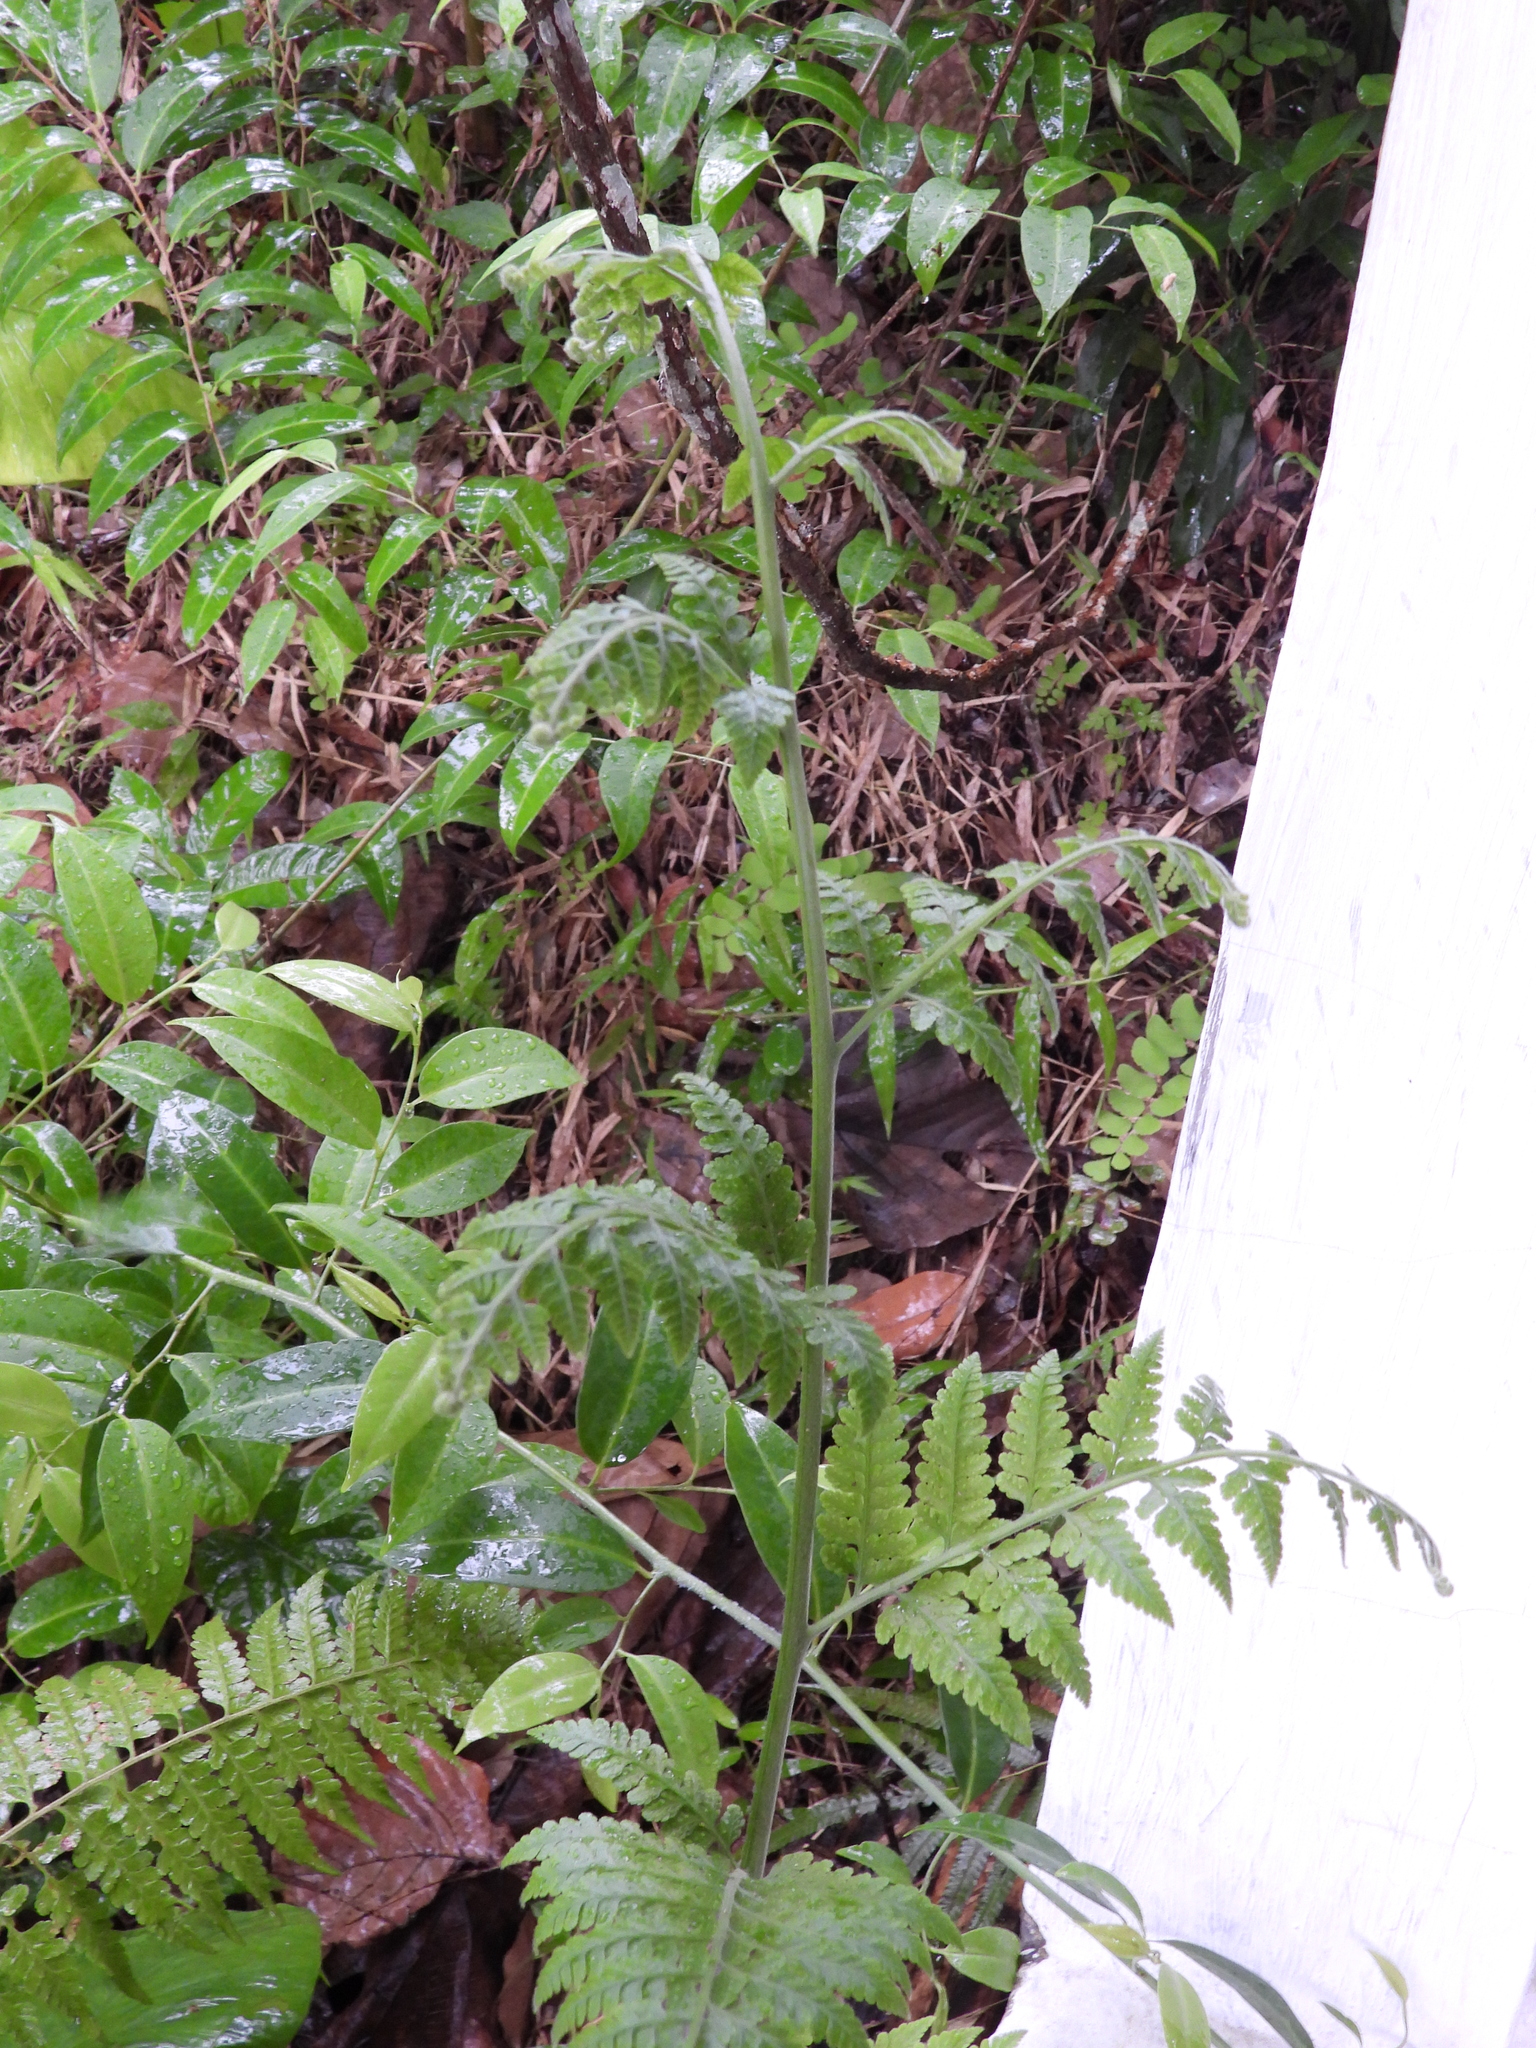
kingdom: Plantae
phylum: Tracheophyta
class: Polypodiopsida
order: Polypodiales
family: Dennstaedtiaceae
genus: Microlepia
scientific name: Microlepia speluncae
